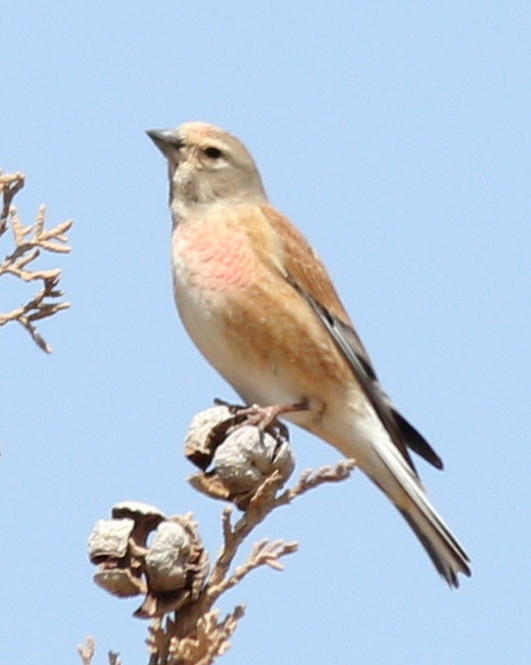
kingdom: Animalia
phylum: Chordata
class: Aves
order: Passeriformes
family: Fringillidae
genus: Linaria
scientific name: Linaria cannabina
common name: Common linnet
